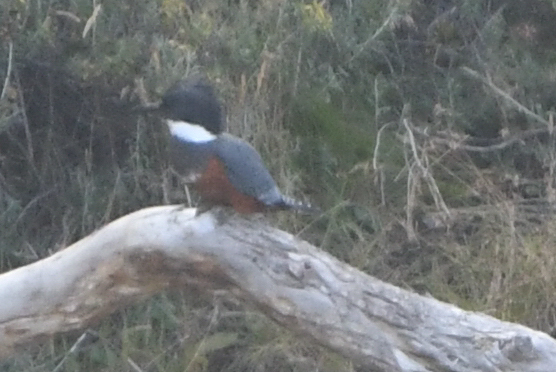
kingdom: Animalia
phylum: Chordata
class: Aves
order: Coraciiformes
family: Alcedinidae
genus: Megaceryle
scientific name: Megaceryle torquata
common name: Ringed kingfisher
